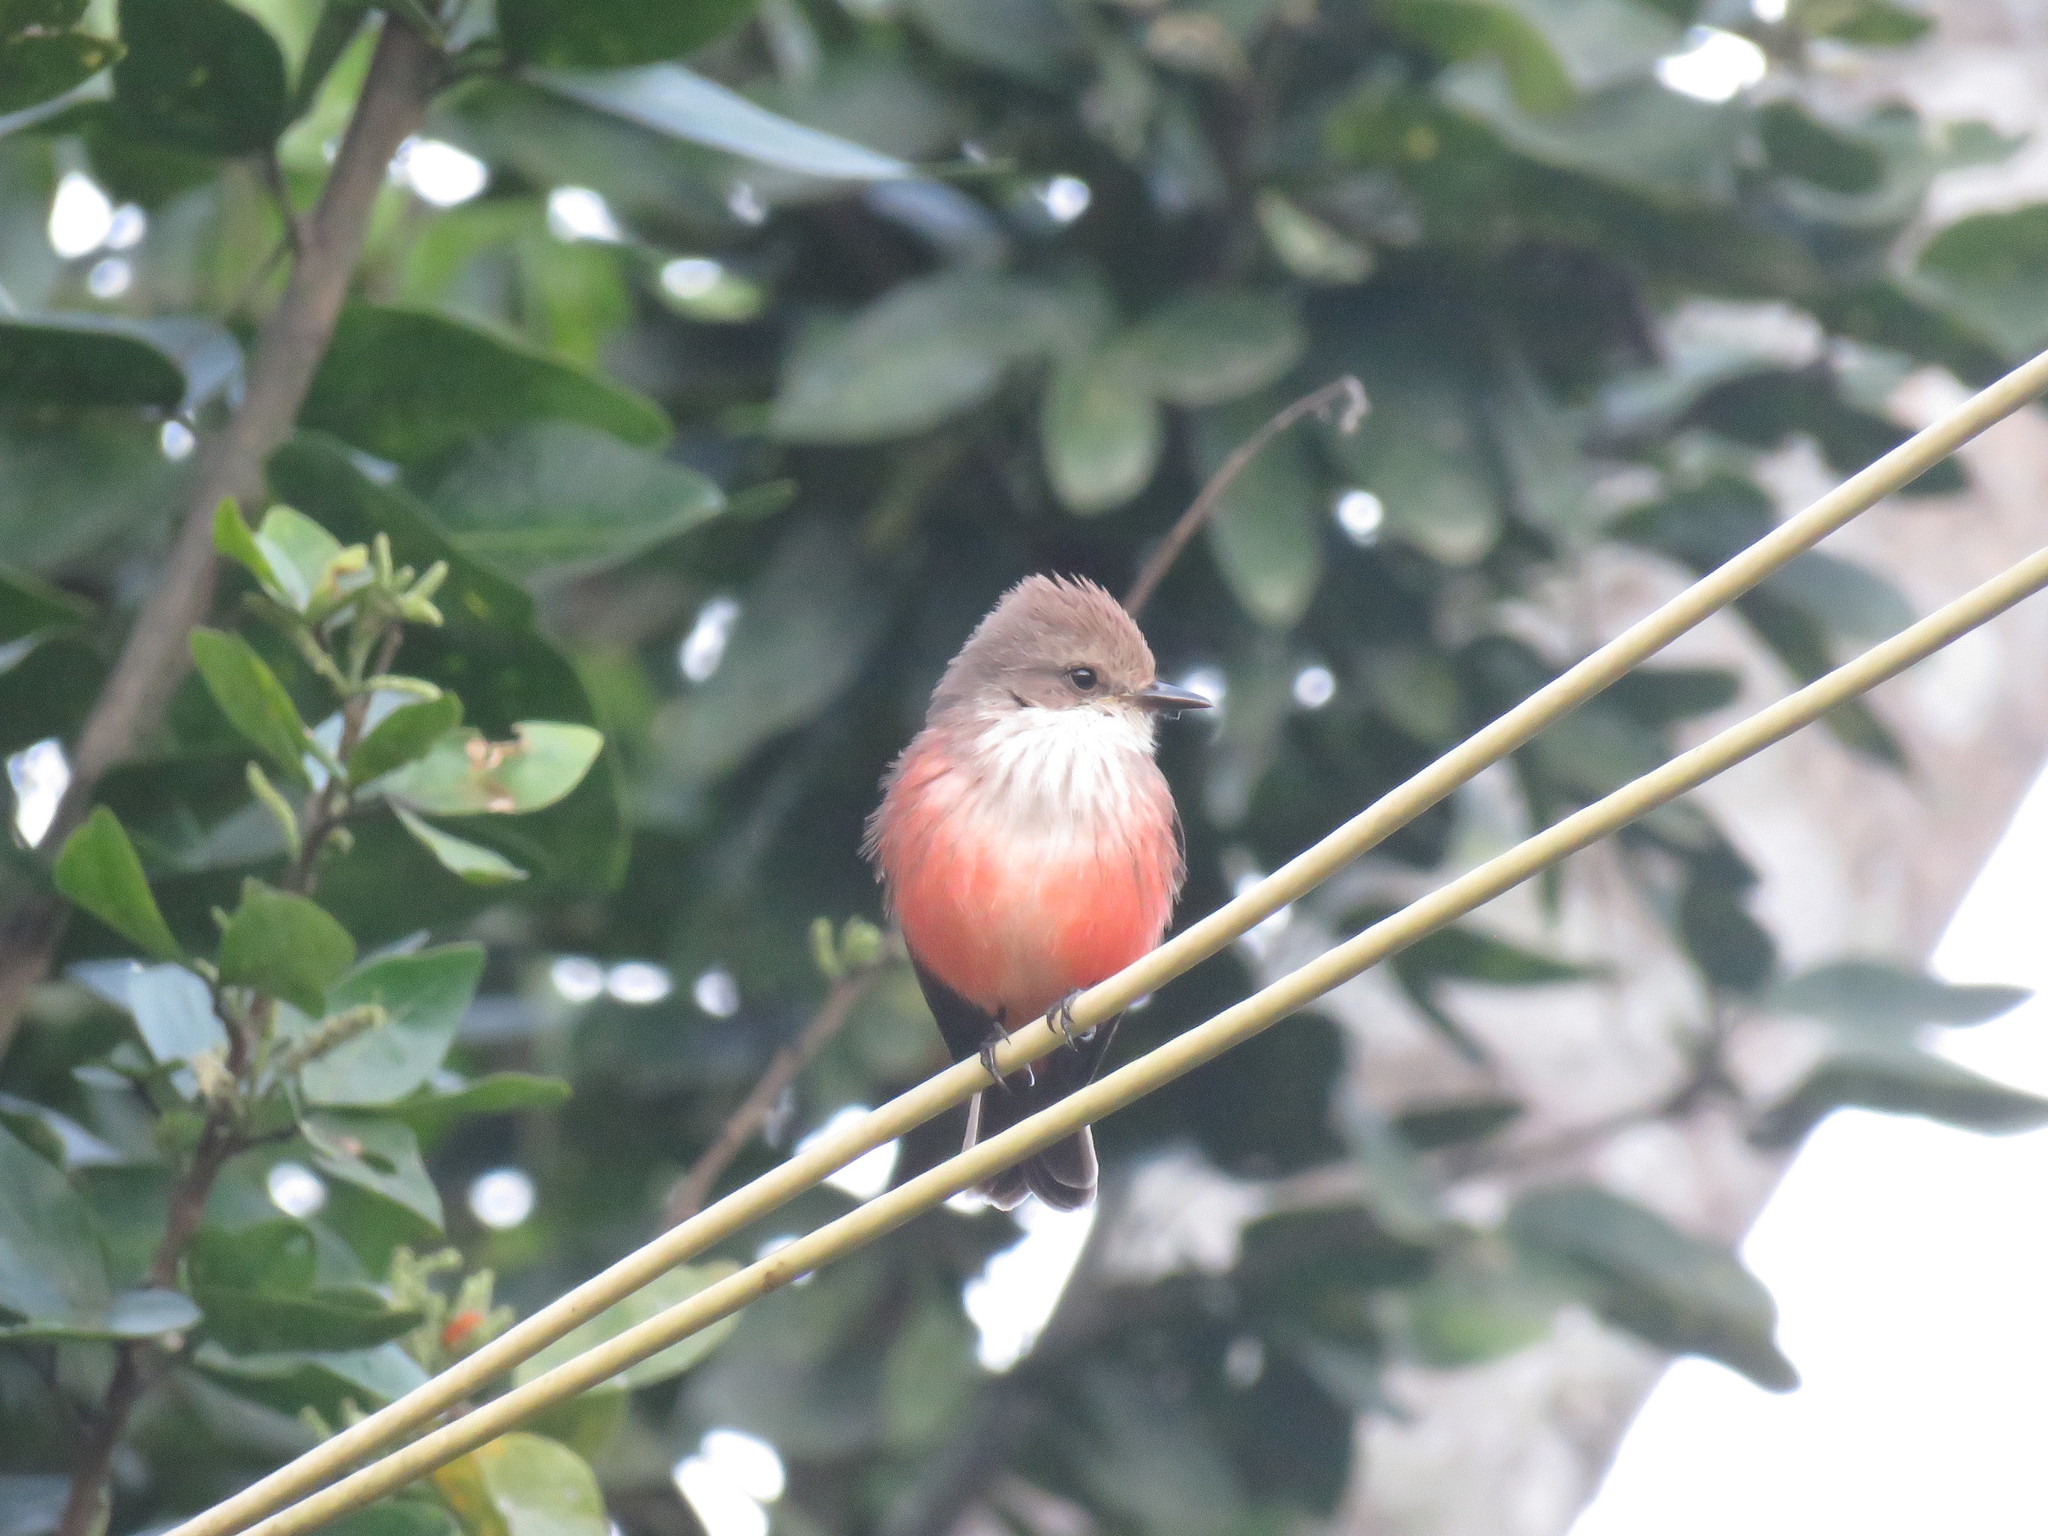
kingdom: Animalia
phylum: Chordata
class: Aves
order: Passeriformes
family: Tyrannidae
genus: Pyrocephalus
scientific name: Pyrocephalus rubinus
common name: Vermilion flycatcher
